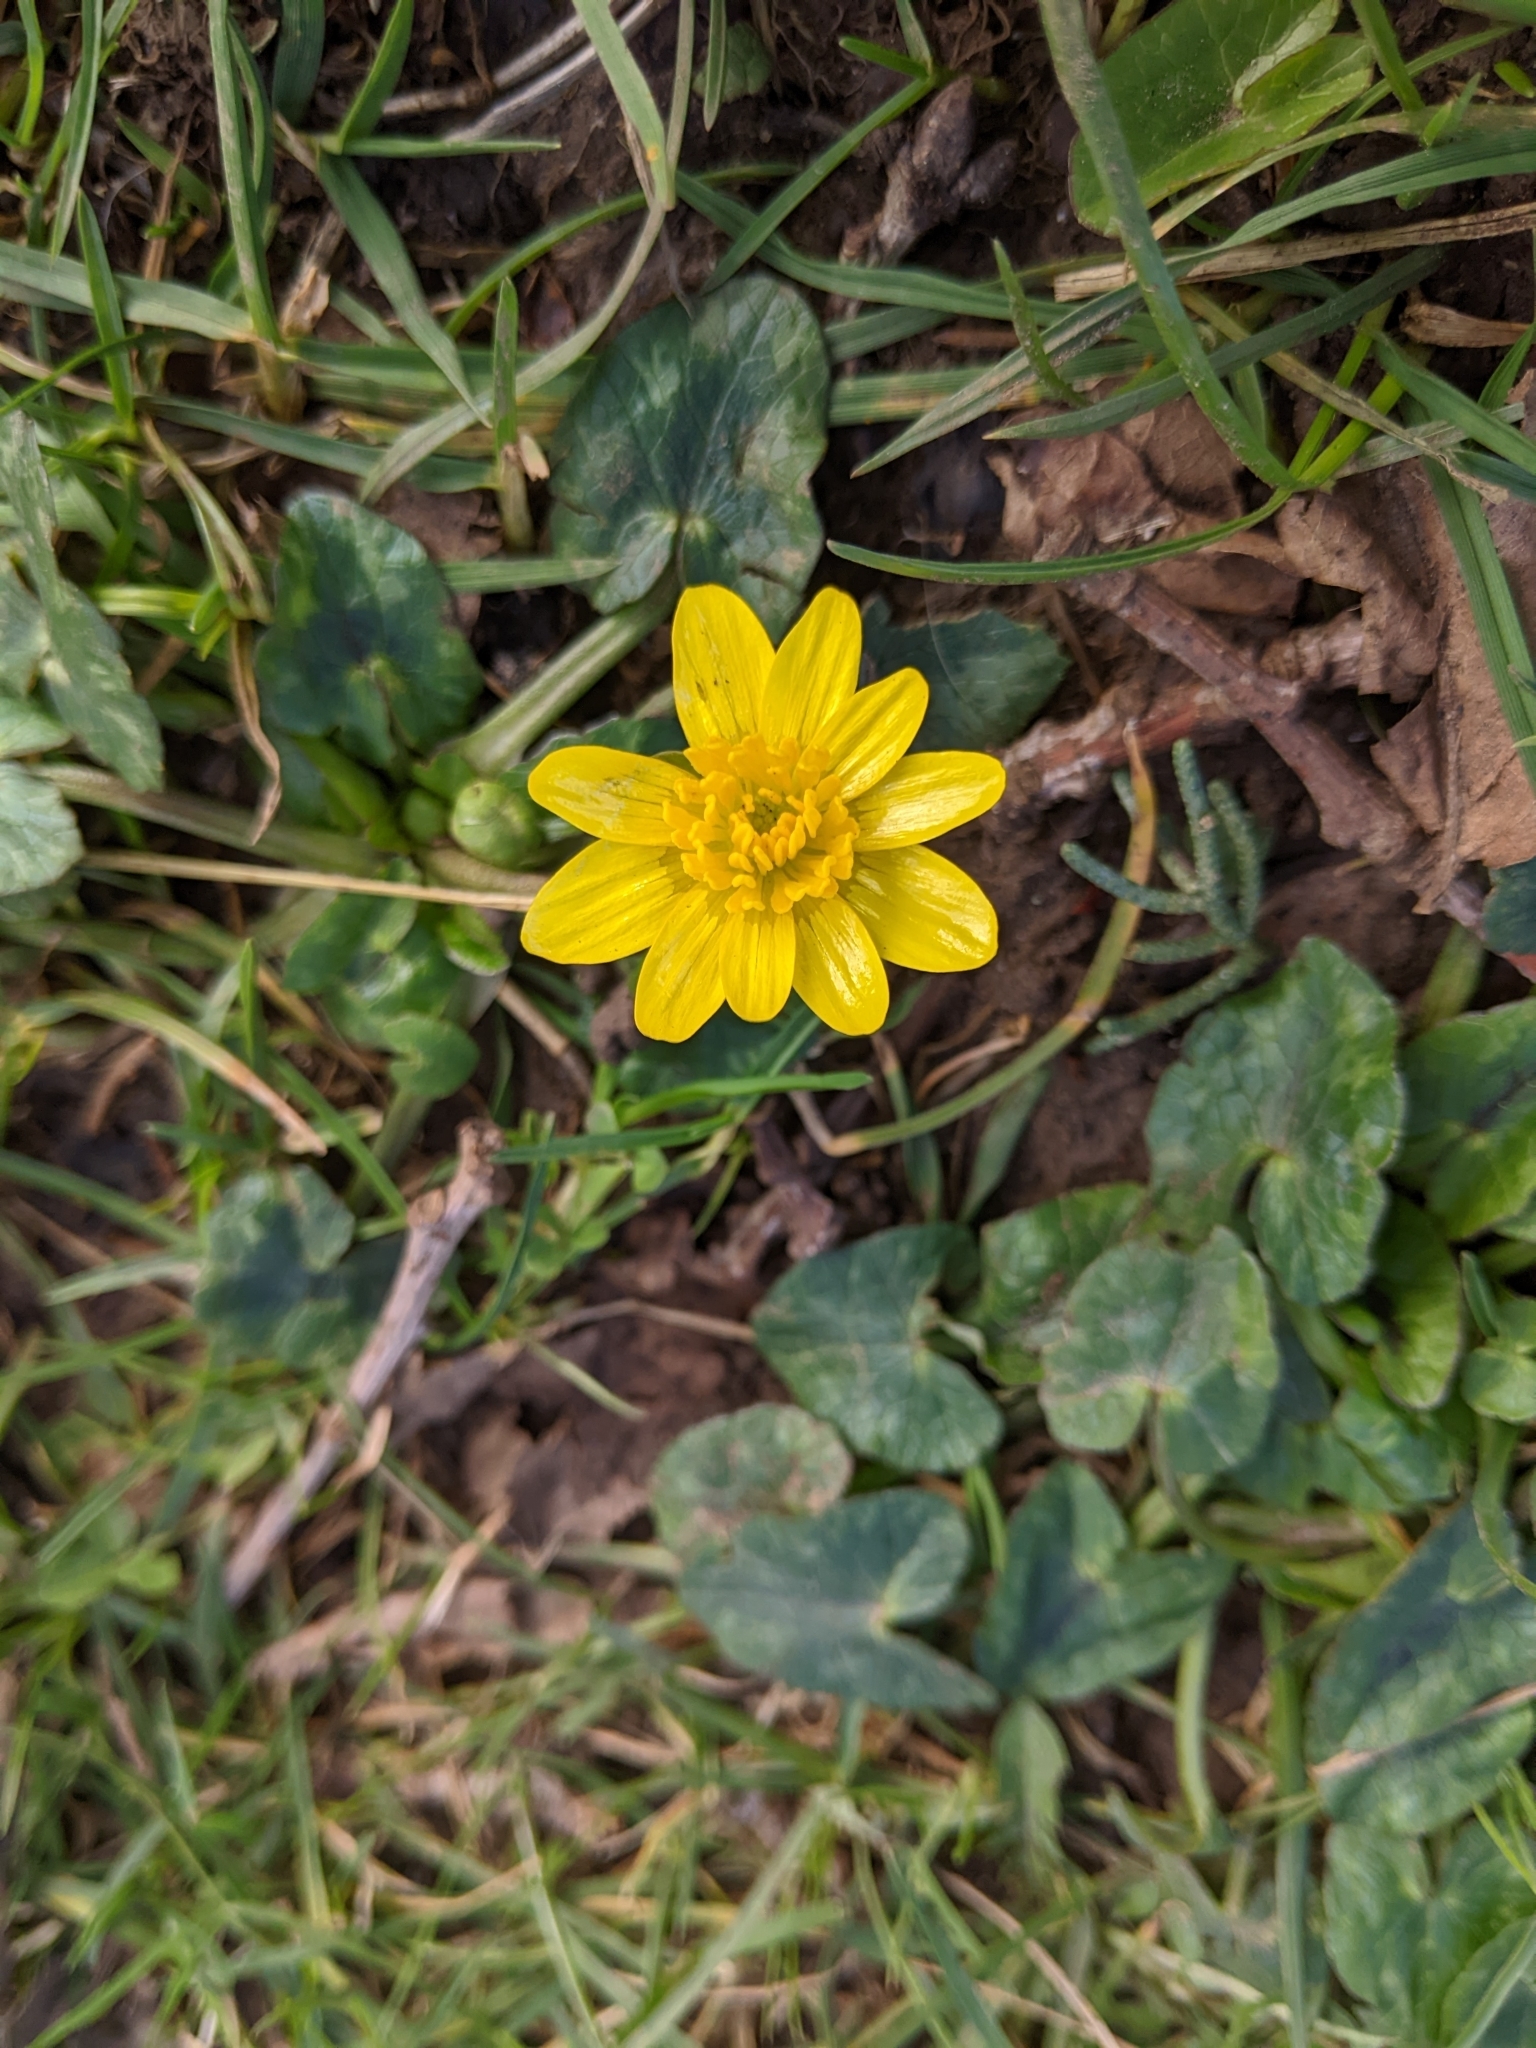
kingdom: Plantae
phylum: Tracheophyta
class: Magnoliopsida
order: Ranunculales
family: Ranunculaceae
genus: Ficaria
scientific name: Ficaria verna
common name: Lesser celandine
